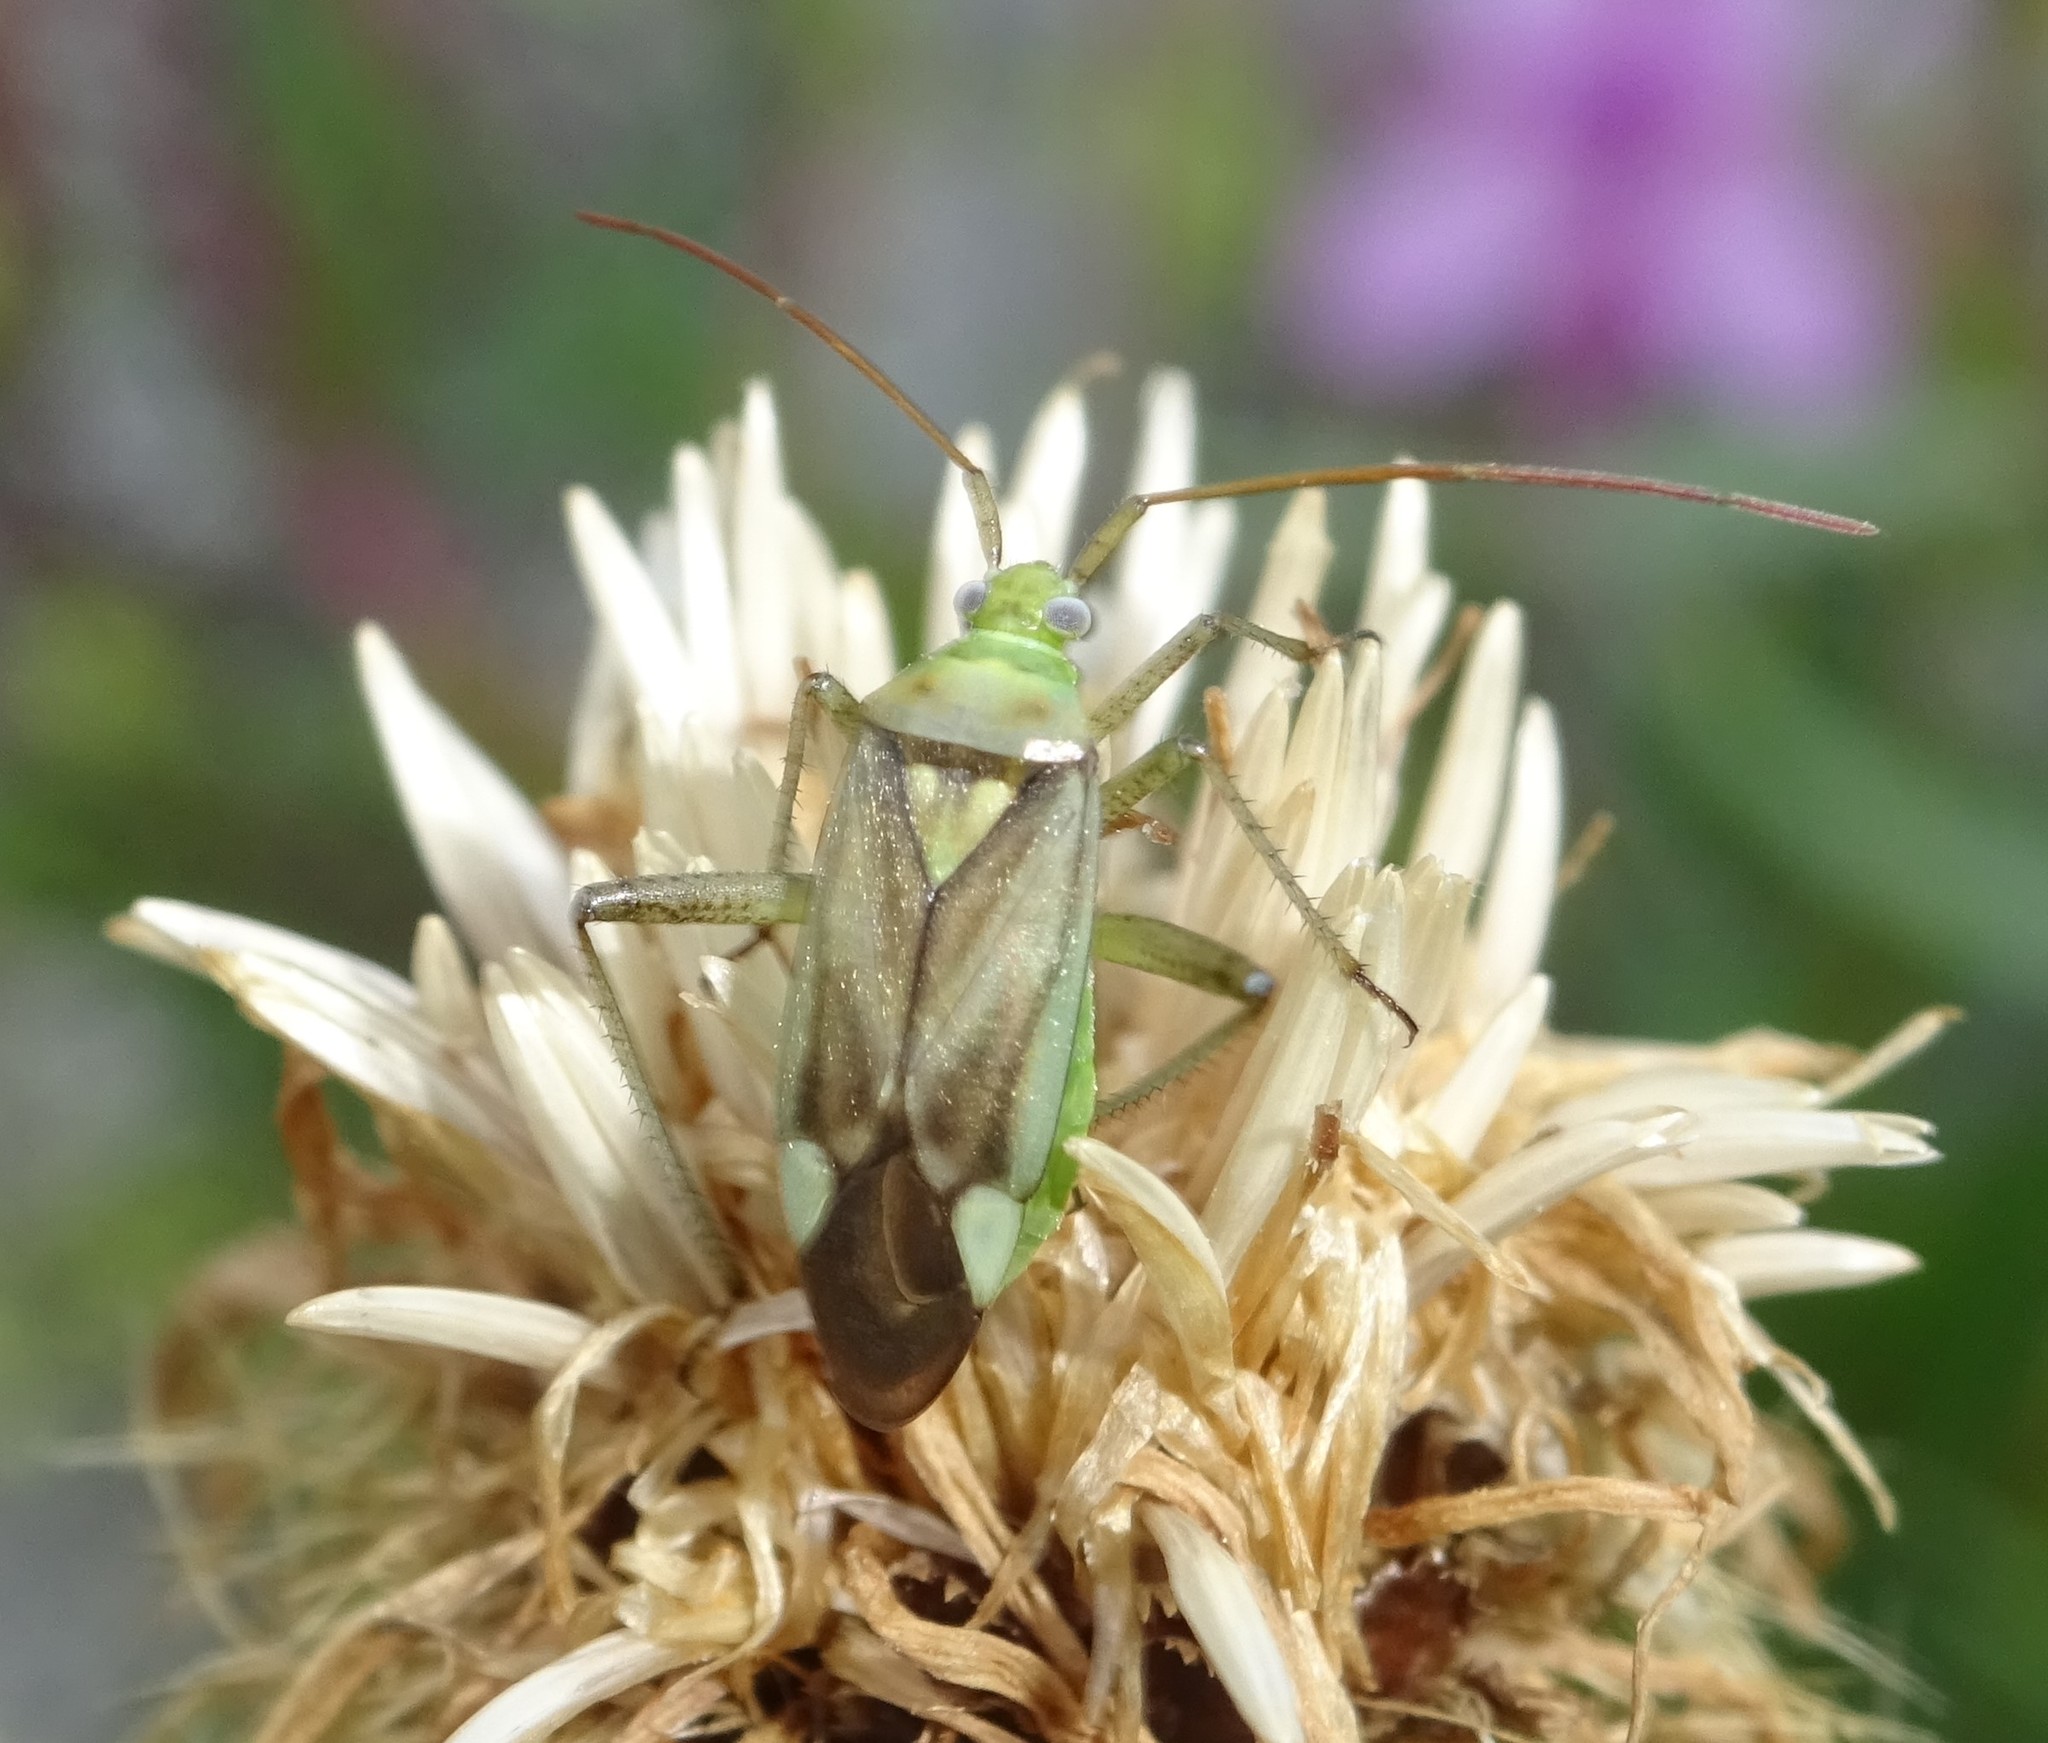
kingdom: Animalia
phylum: Arthropoda
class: Insecta
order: Hemiptera
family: Miridae
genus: Adelphocoris
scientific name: Adelphocoris lineolatus
